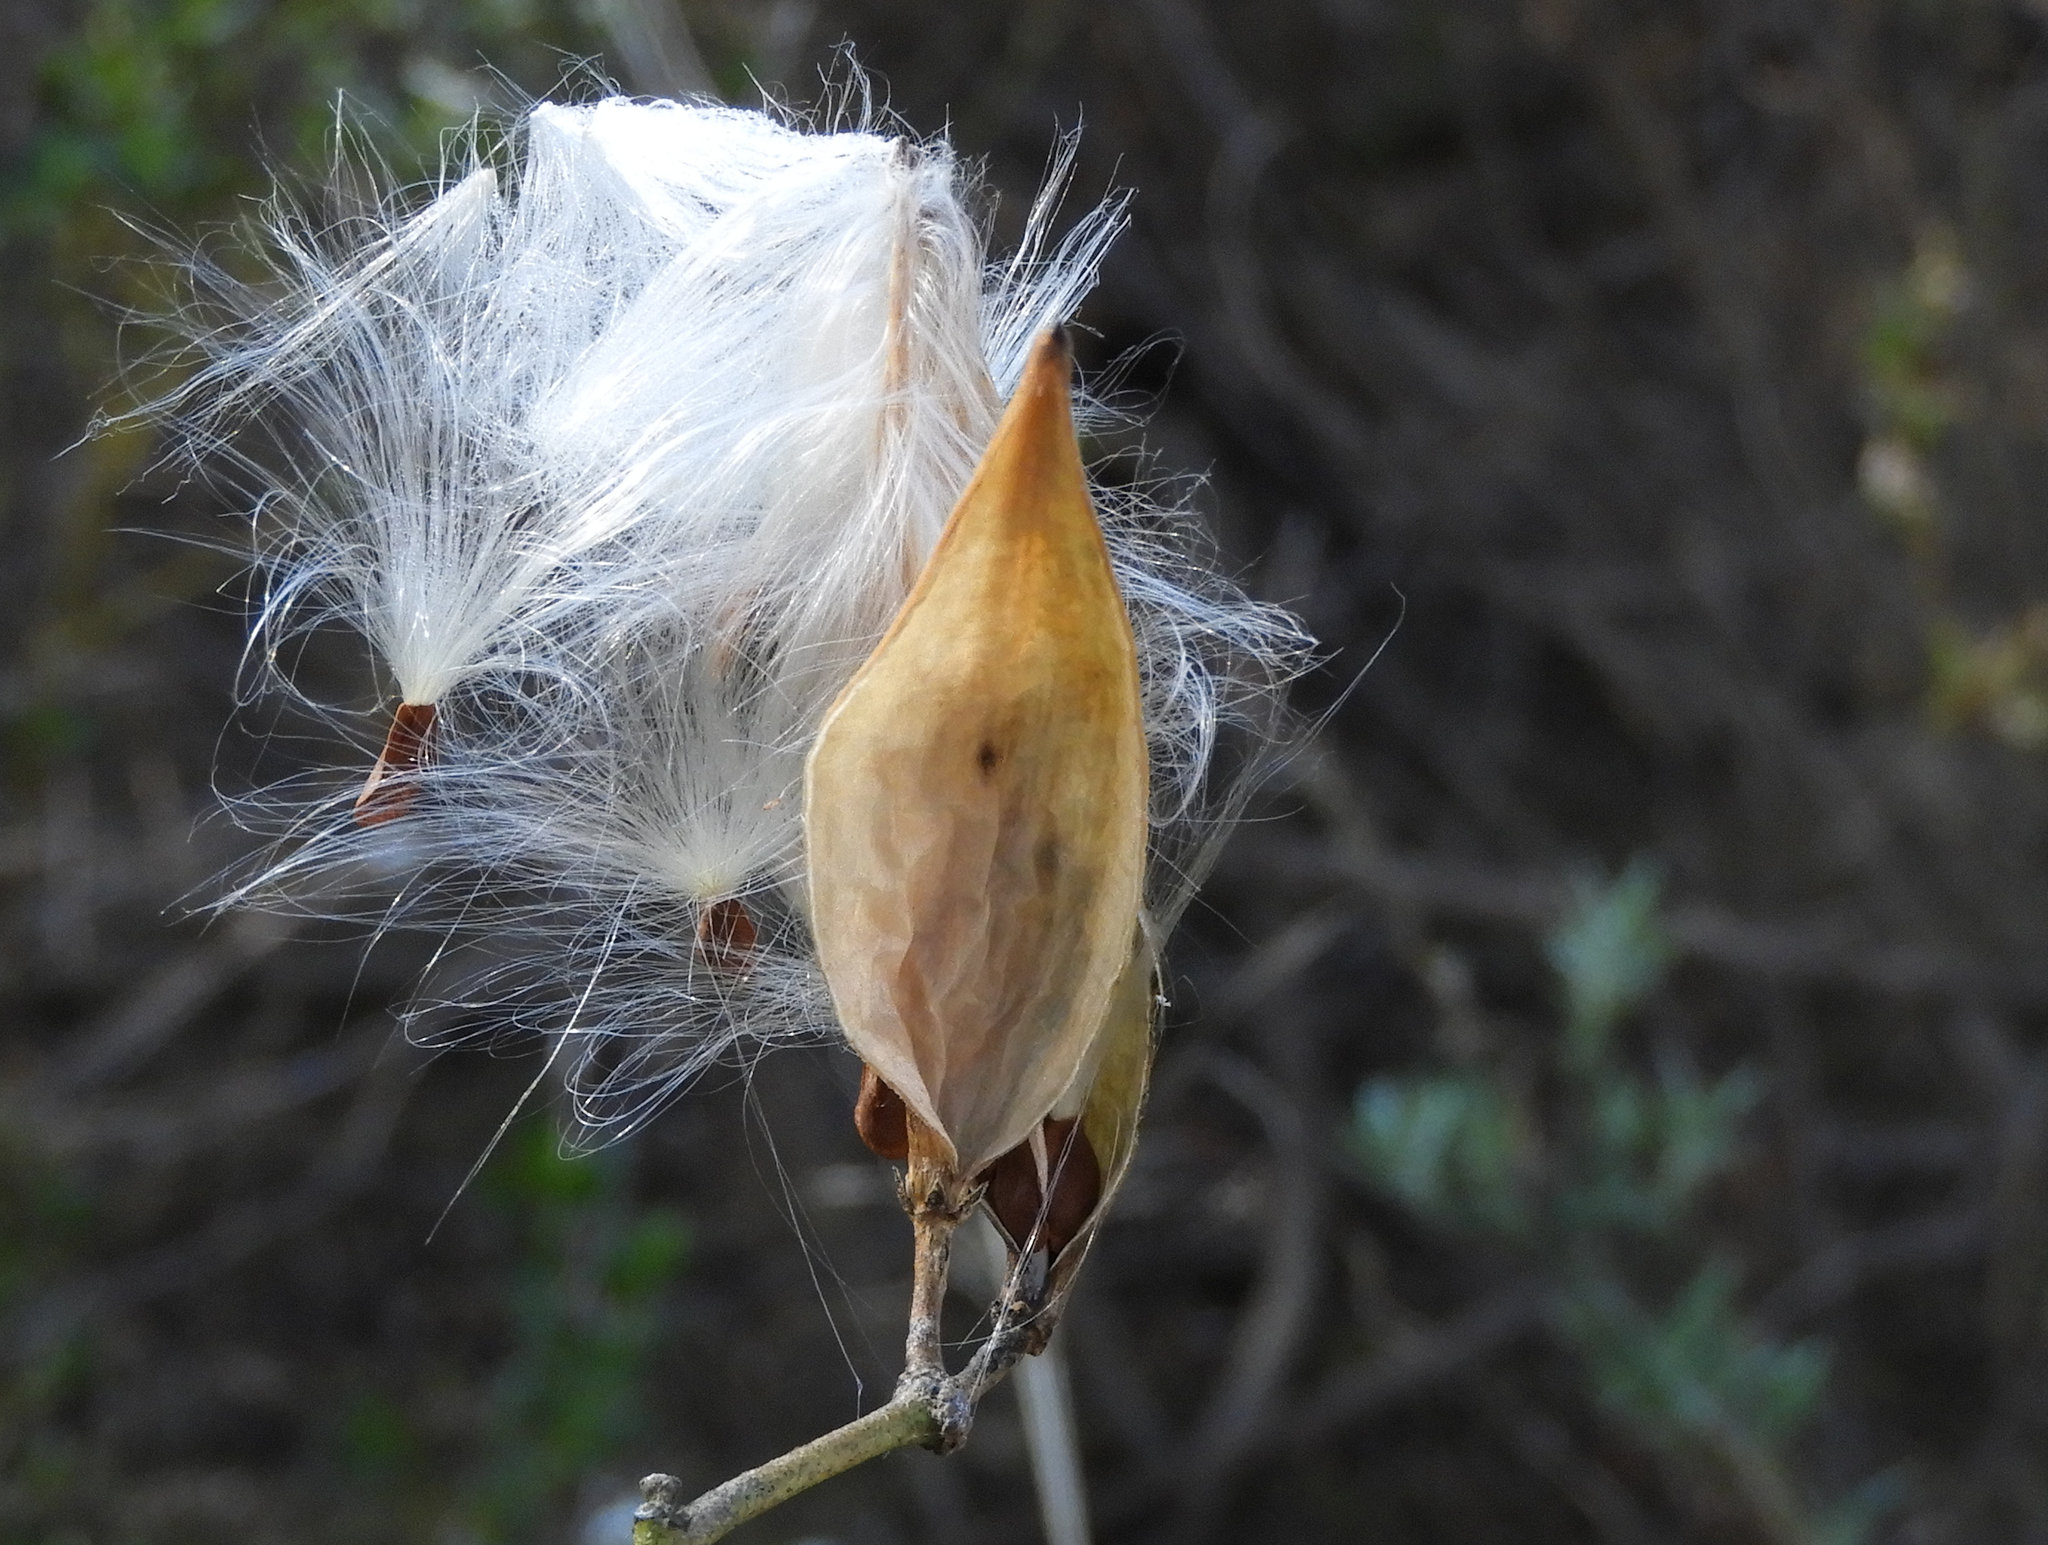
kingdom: Plantae
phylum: Tracheophyta
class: Magnoliopsida
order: Gentianales
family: Apocynaceae
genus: Asclepias
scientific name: Asclepias fascicularis
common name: Mexican milkweed
